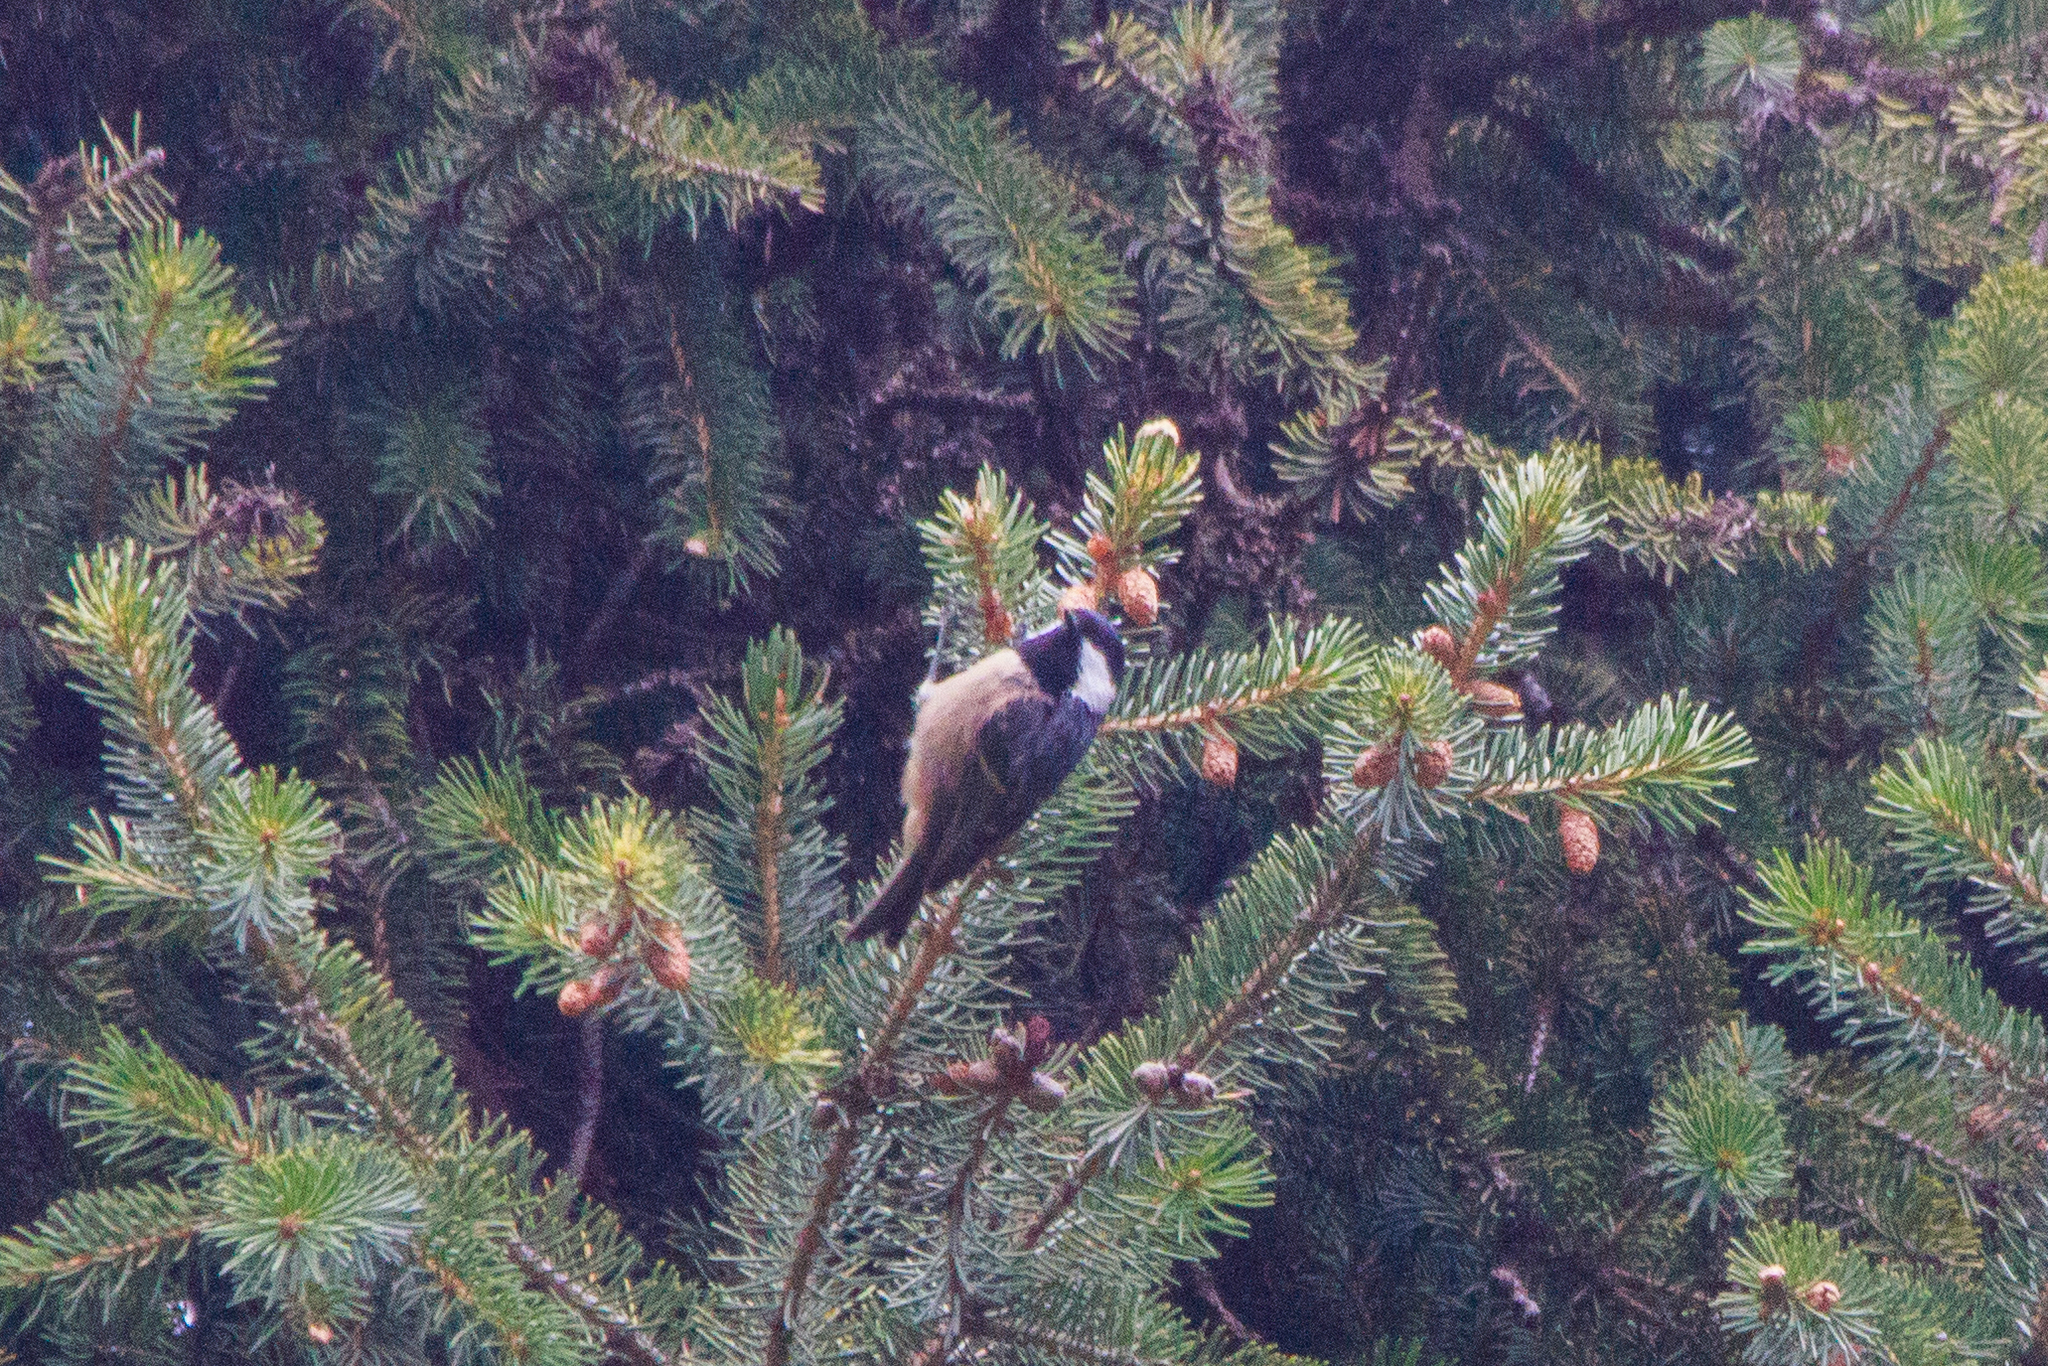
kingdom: Animalia
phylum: Chordata
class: Aves
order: Passeriformes
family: Paridae
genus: Periparus
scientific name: Periparus ater
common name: Coal tit
